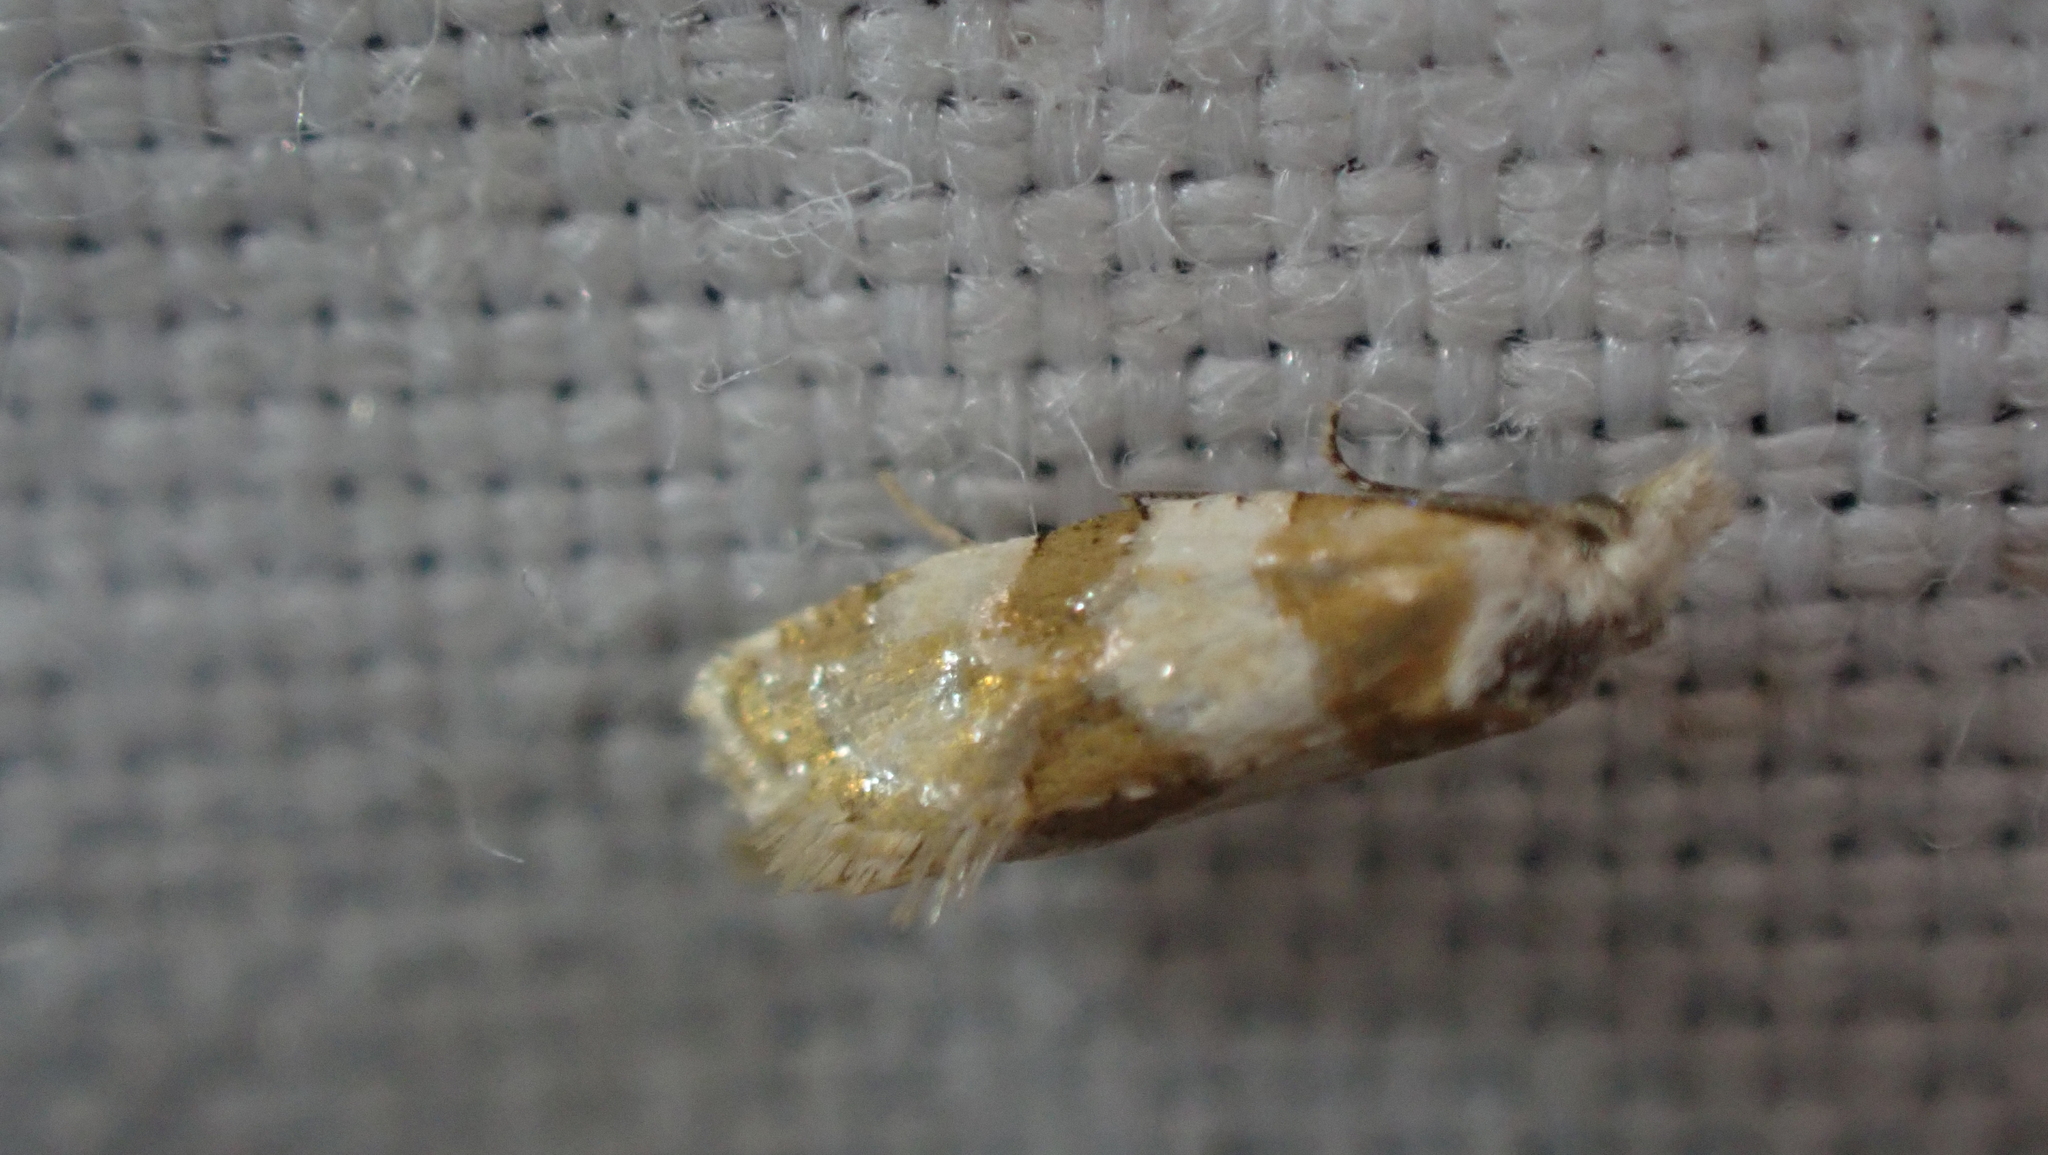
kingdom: Animalia
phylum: Arthropoda
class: Insecta
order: Lepidoptera
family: Tortricidae
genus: Aethes
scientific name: Aethes argentilimitana
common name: Silver-bordered aethes
